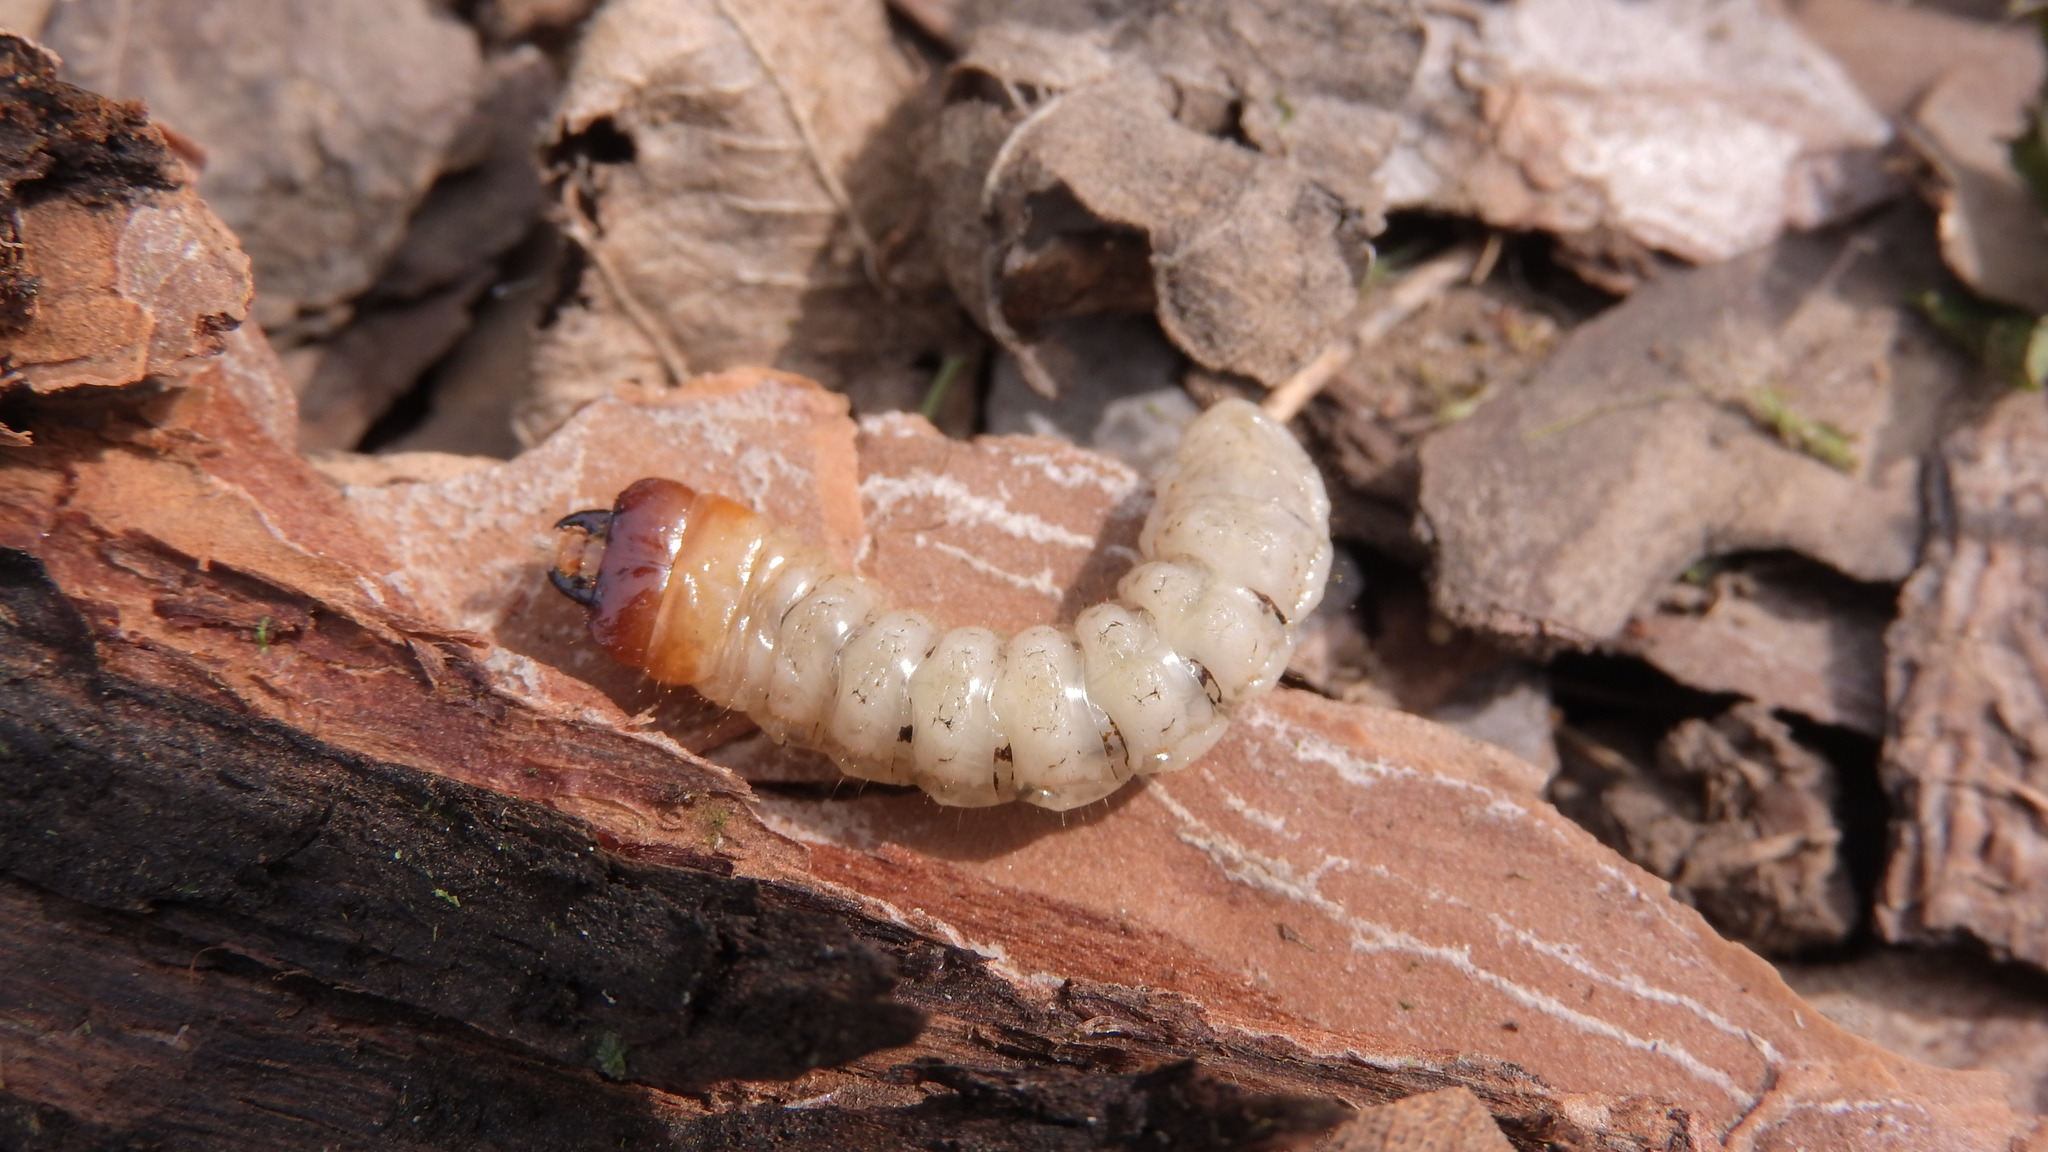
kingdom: Animalia
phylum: Arthropoda
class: Insecta
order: Coleoptera
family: Cerambycidae
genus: Rhagium
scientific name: Rhagium inquisitor
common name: Ribbed pine borer
